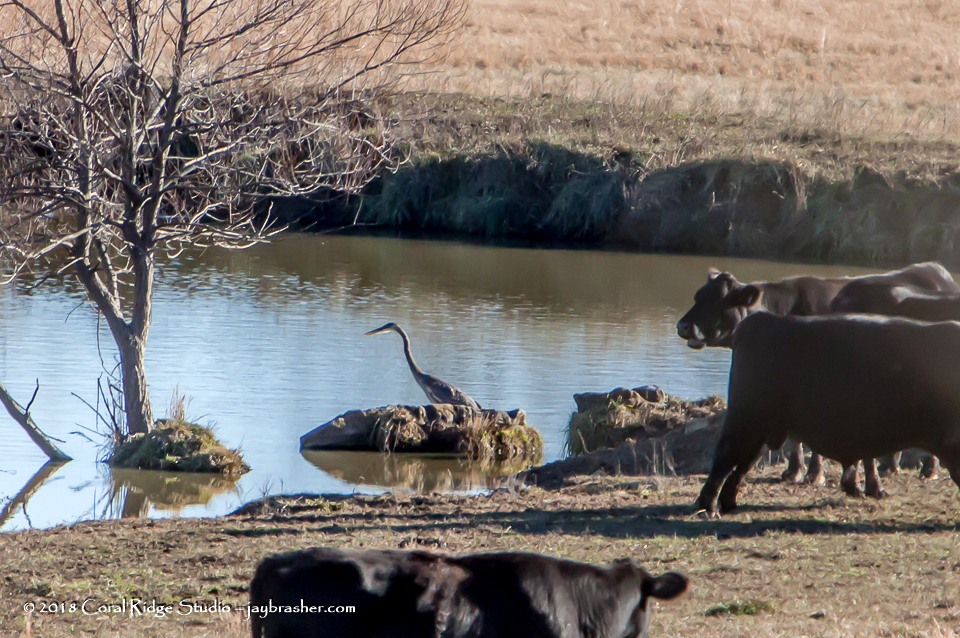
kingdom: Animalia
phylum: Chordata
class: Aves
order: Pelecaniformes
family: Ardeidae
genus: Ardea
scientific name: Ardea herodias
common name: Great blue heron
